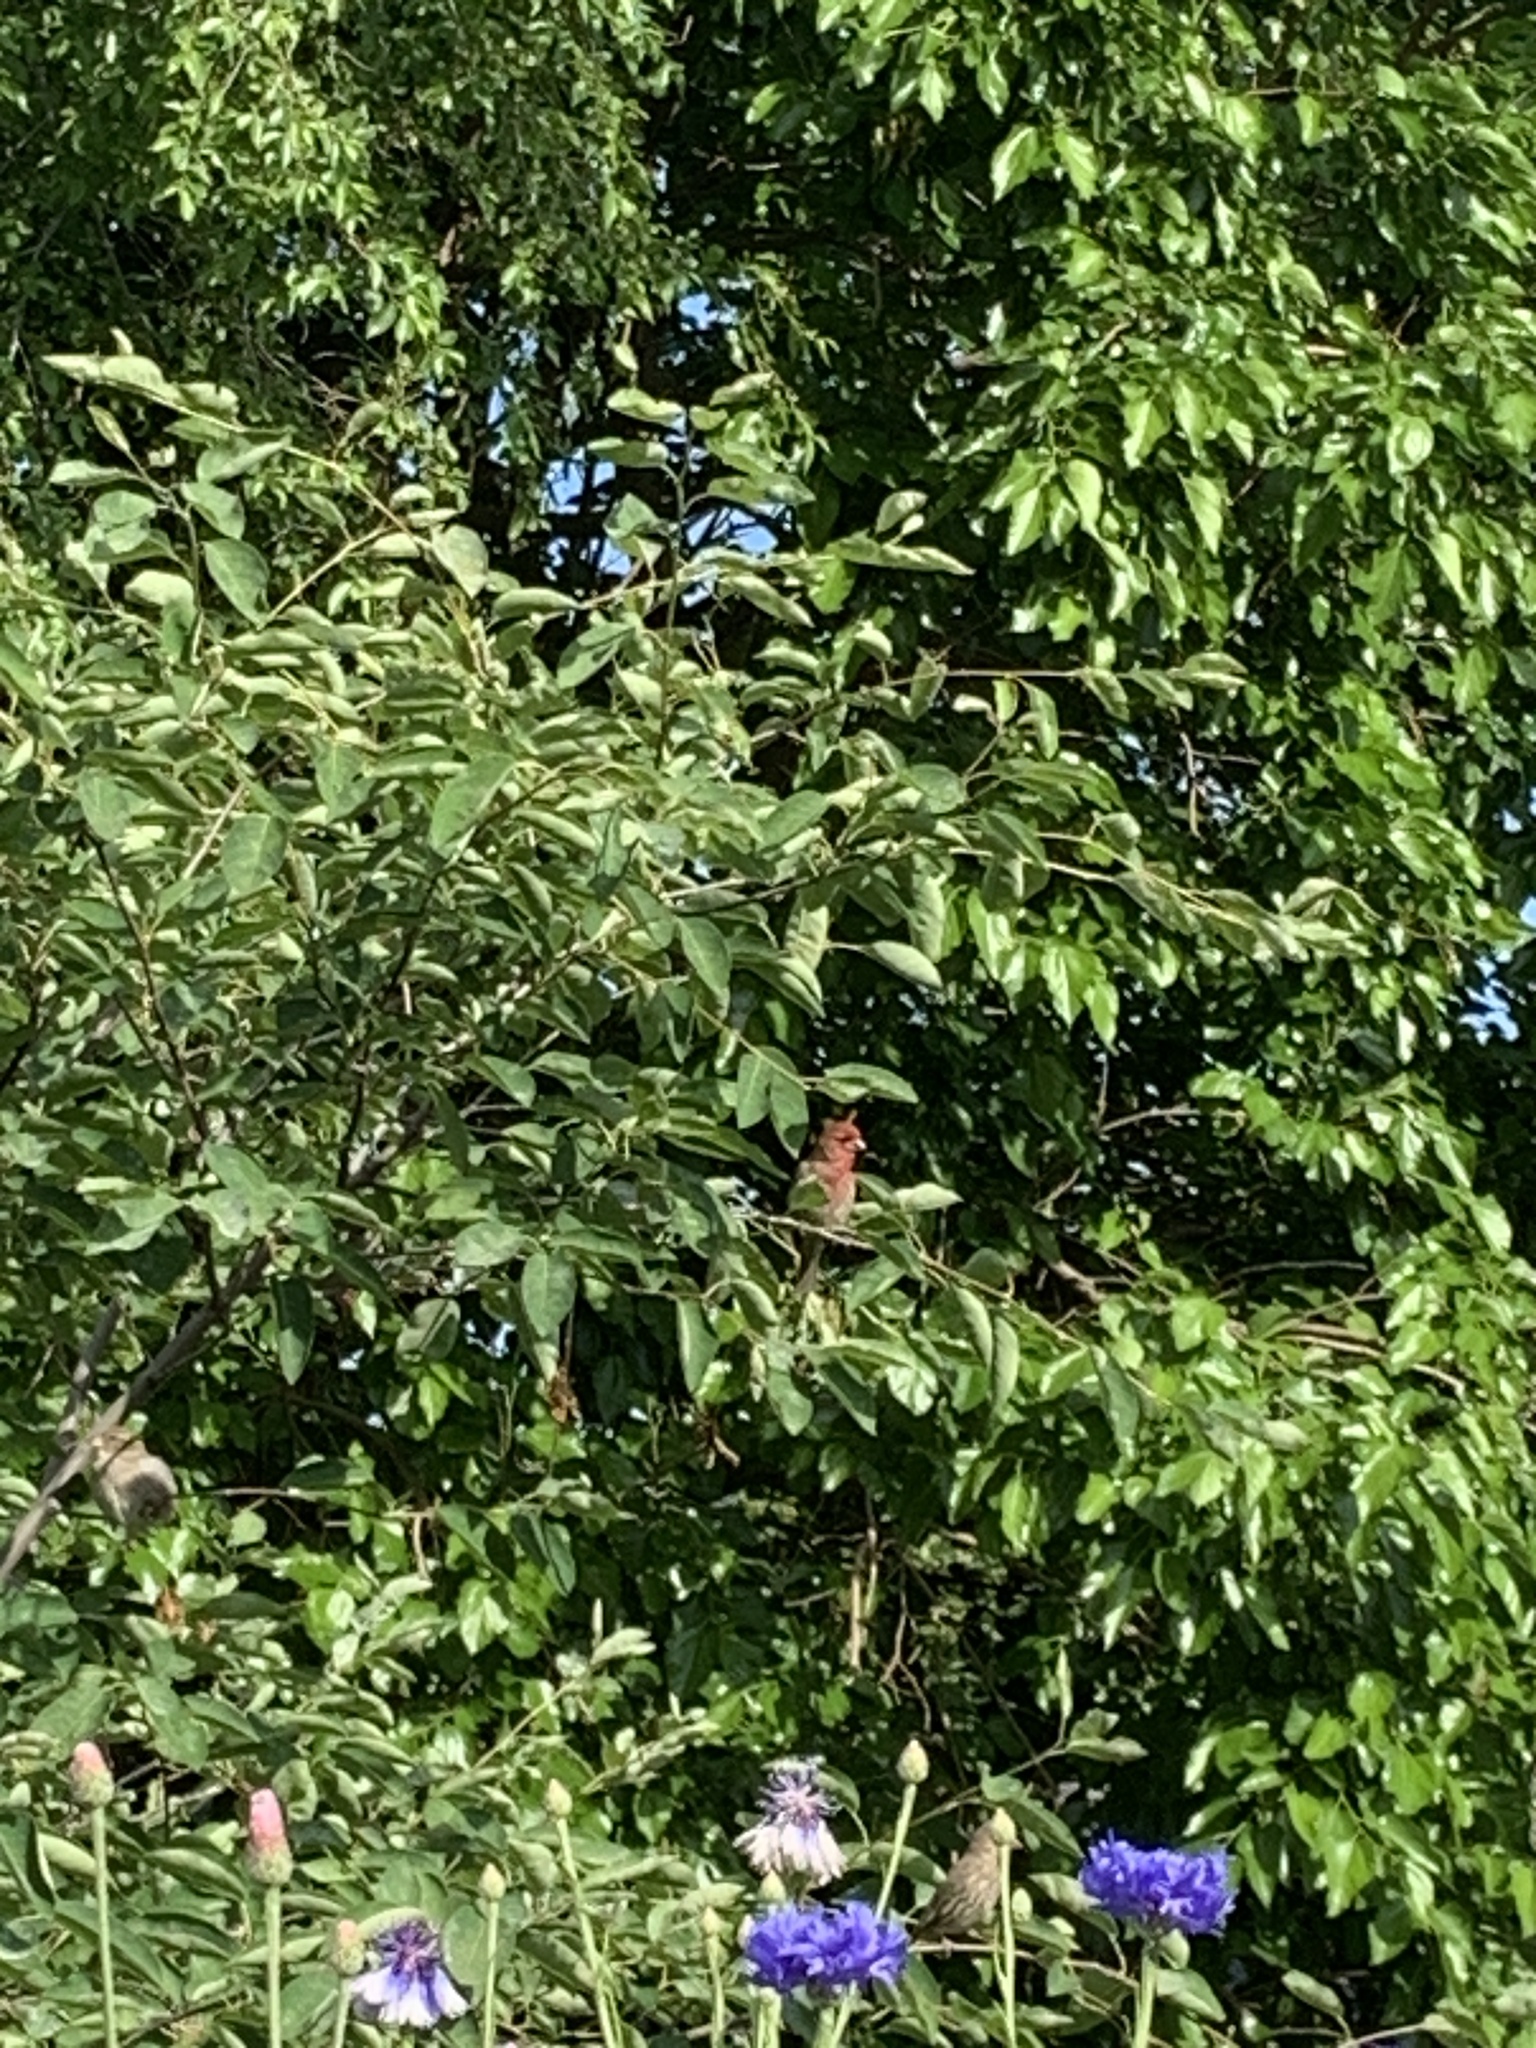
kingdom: Animalia
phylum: Chordata
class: Aves
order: Passeriformes
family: Fringillidae
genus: Haemorhous
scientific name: Haemorhous mexicanus
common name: House finch
